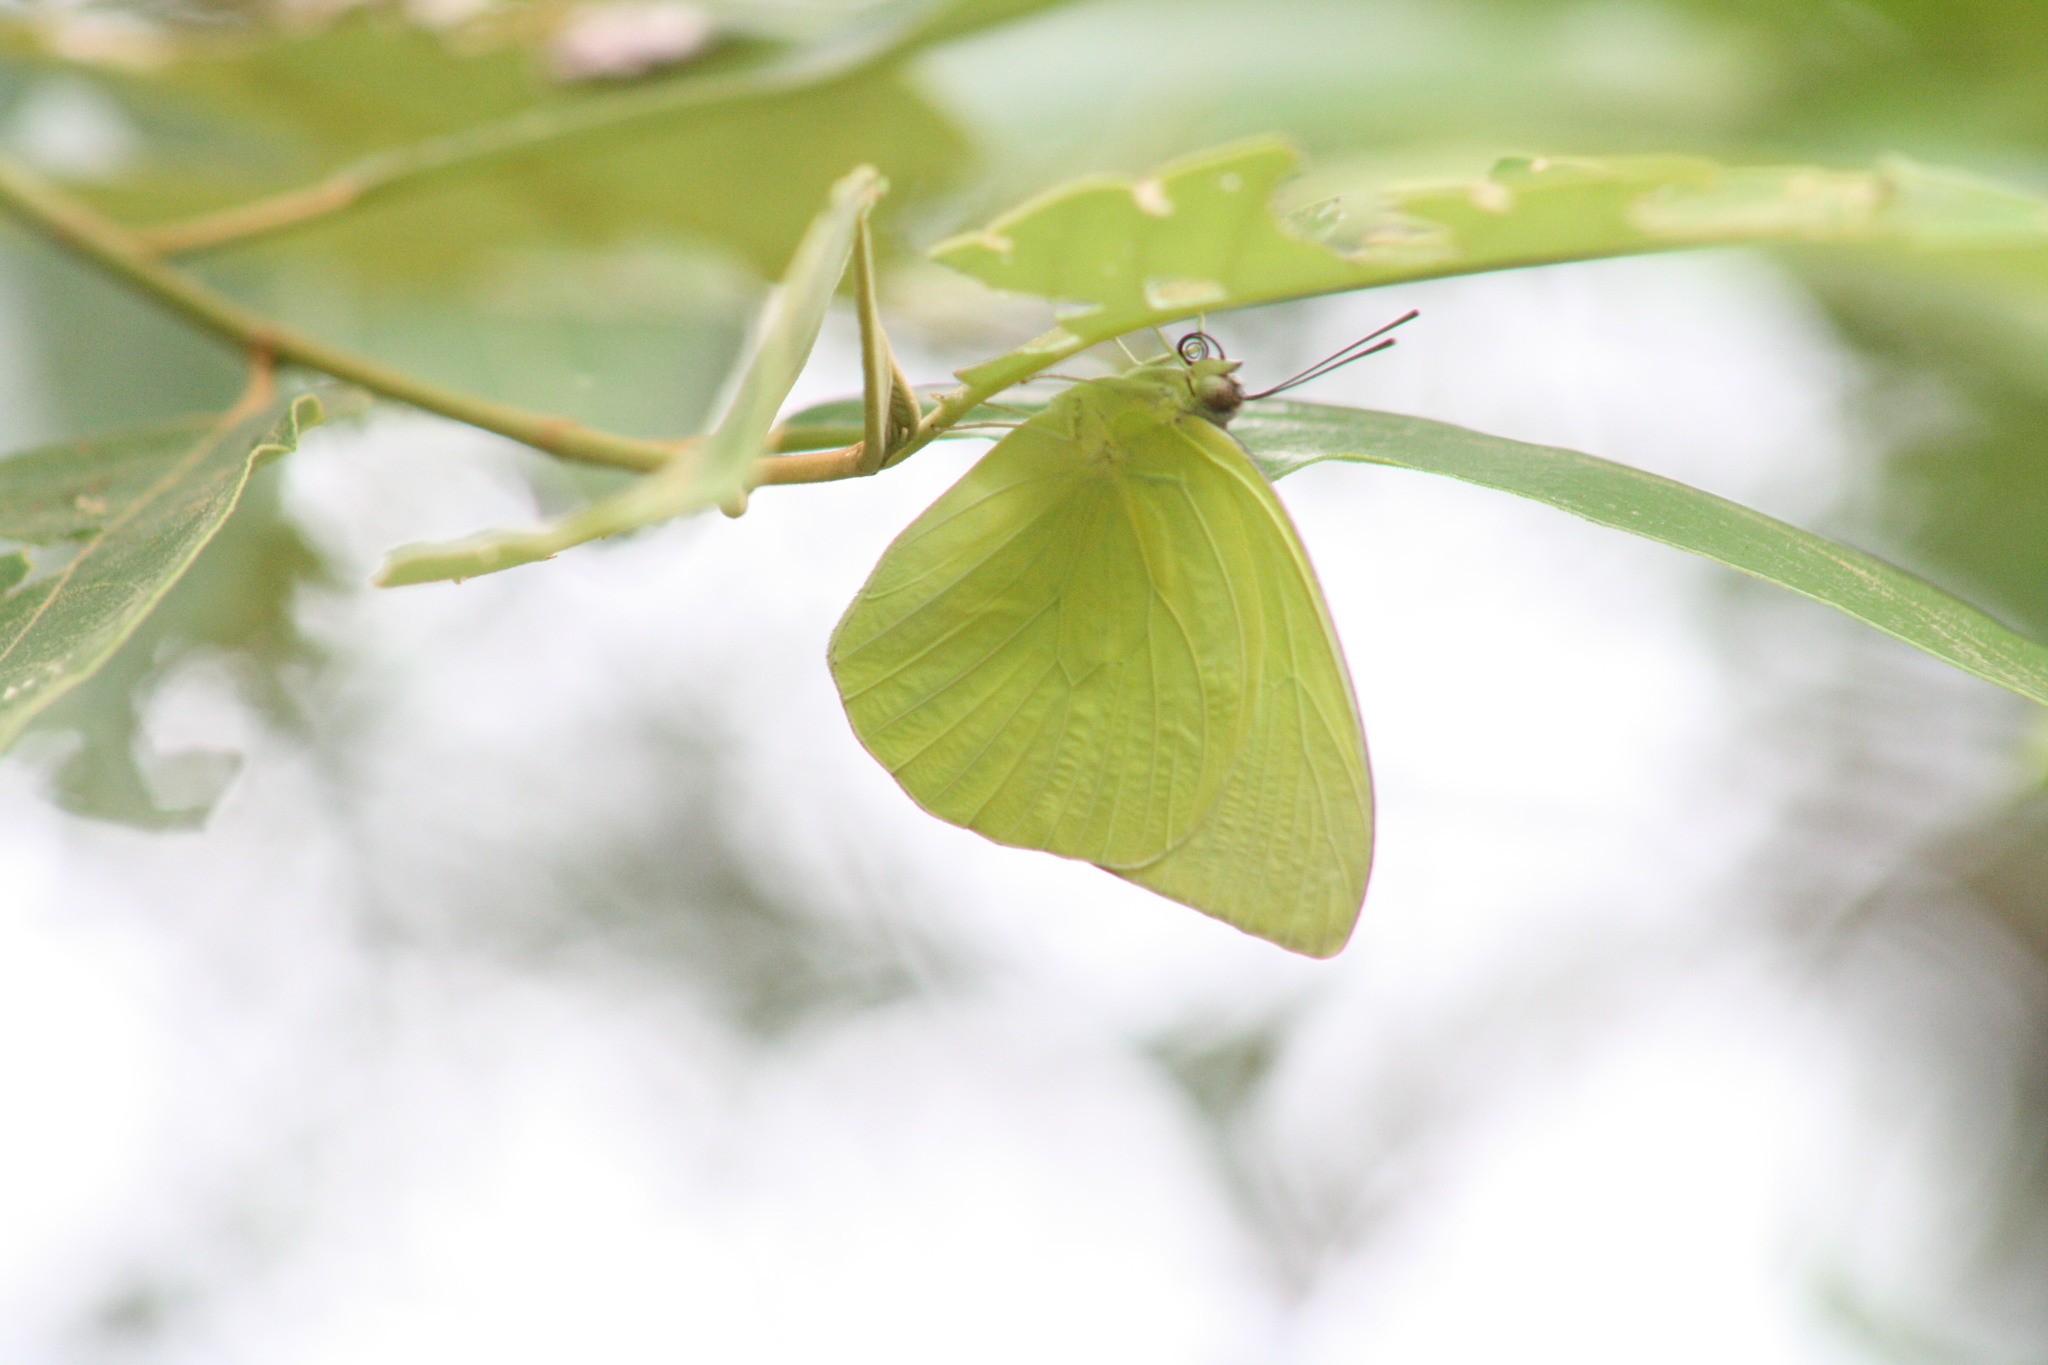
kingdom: Animalia
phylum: Arthropoda
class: Insecta
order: Lepidoptera
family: Pieridae
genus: Catopsilia
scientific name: Catopsilia pomona
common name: Common emigrant
